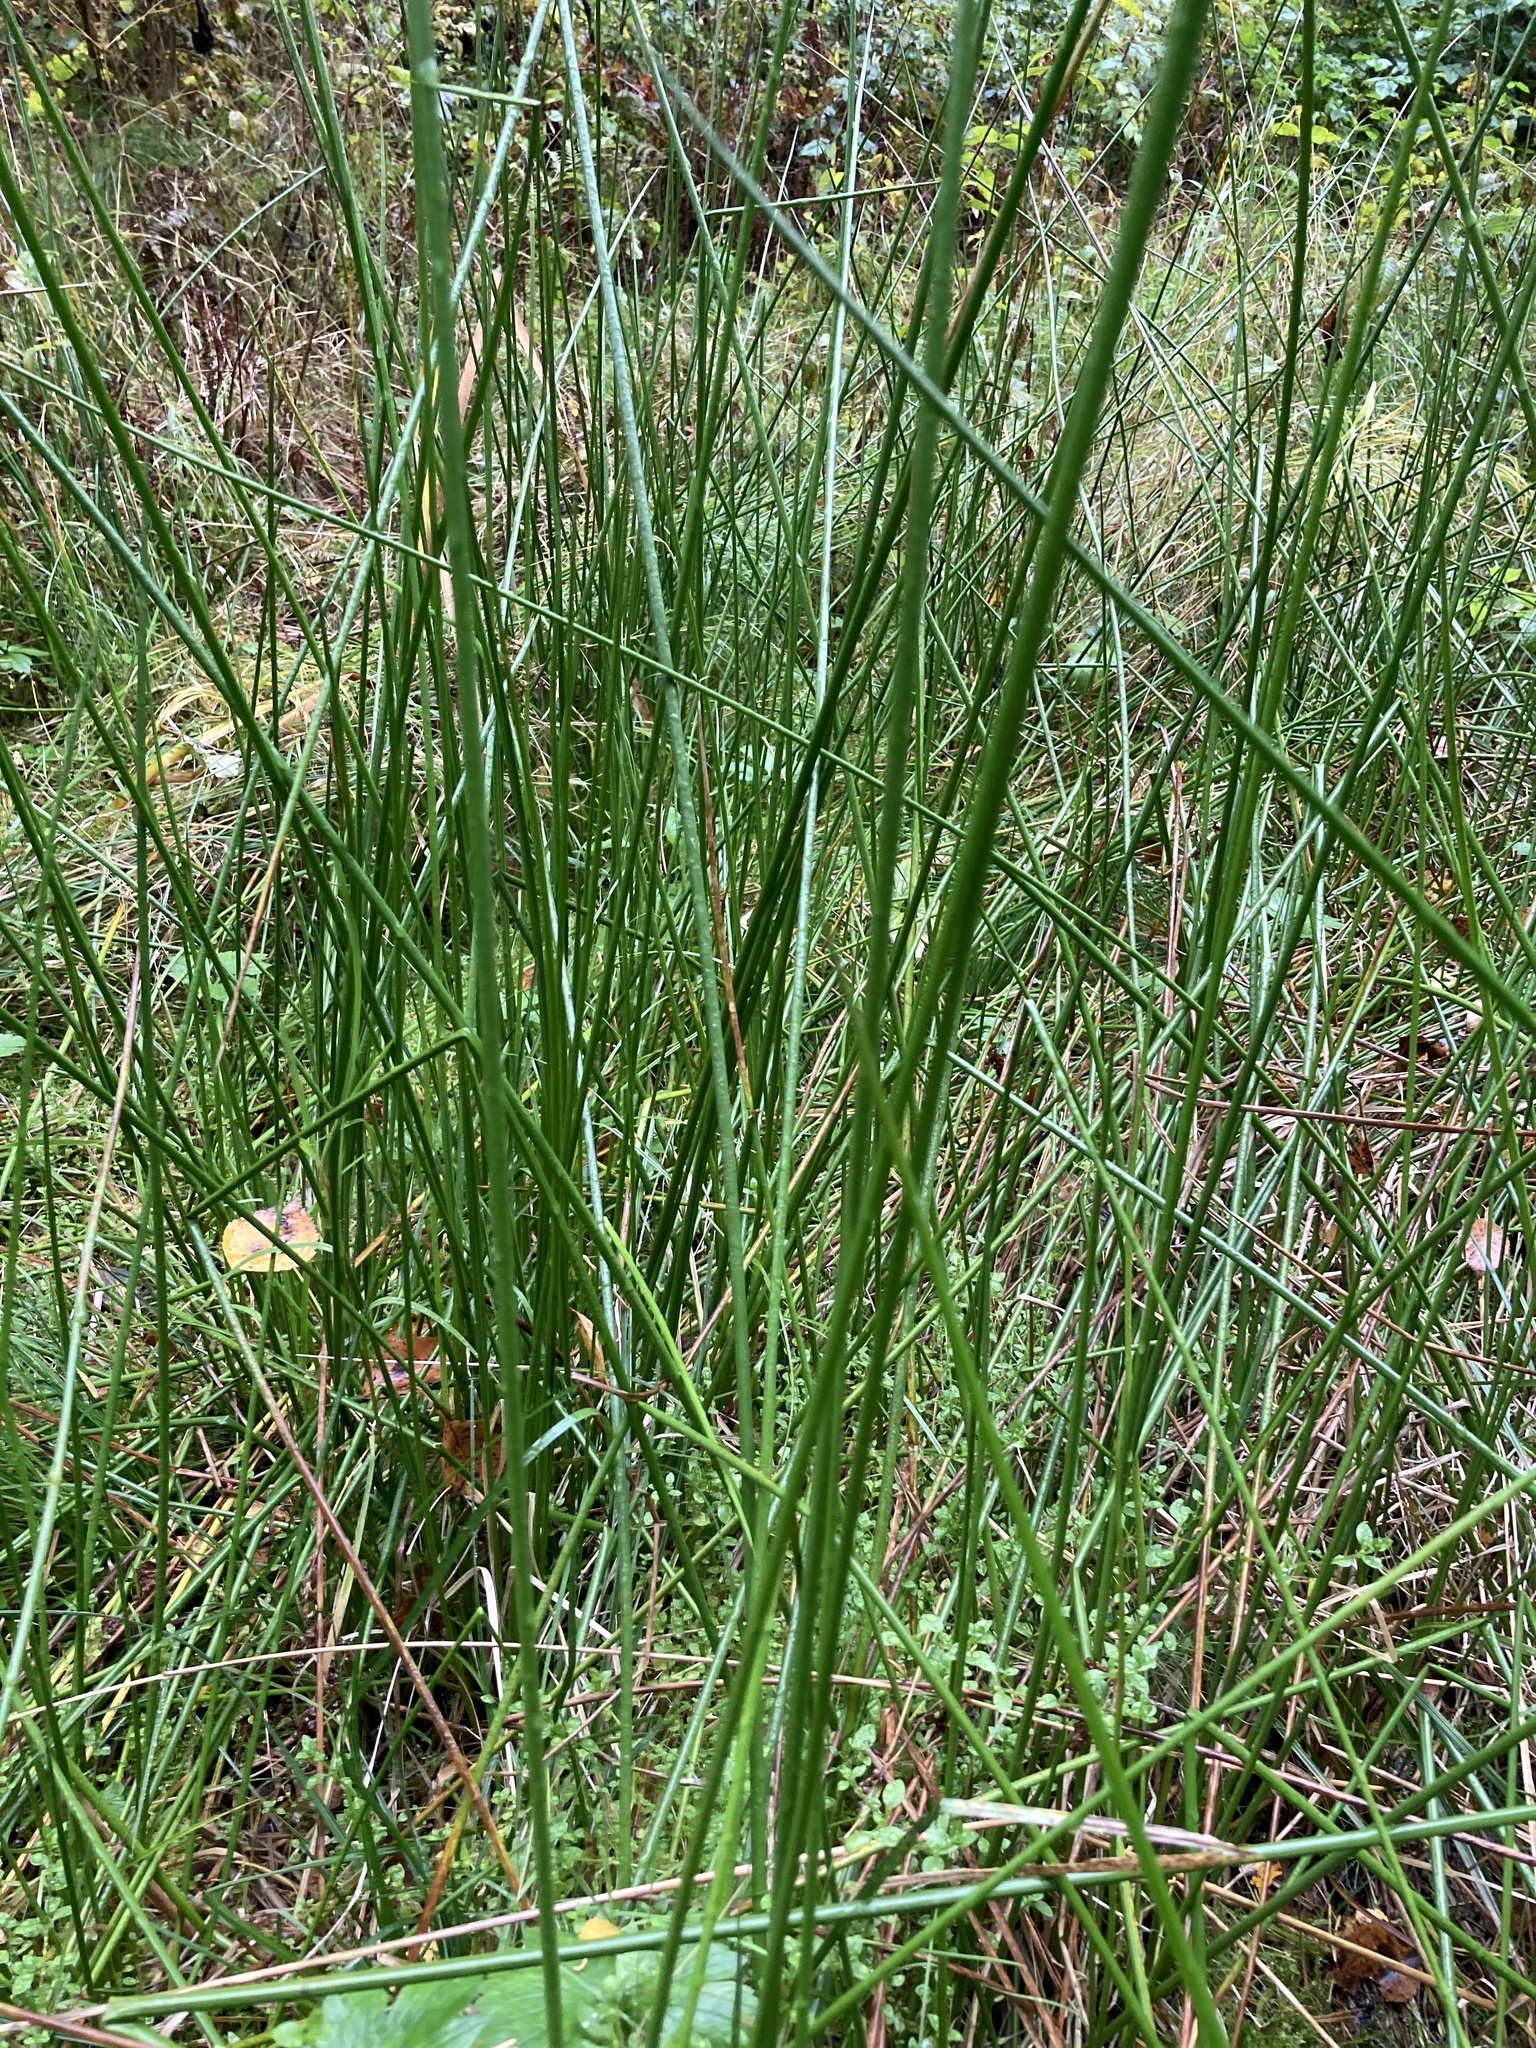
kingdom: Plantae
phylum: Tracheophyta
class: Liliopsida
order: Poales
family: Juncaceae
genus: Juncus
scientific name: Juncus effusus
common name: Soft rush
